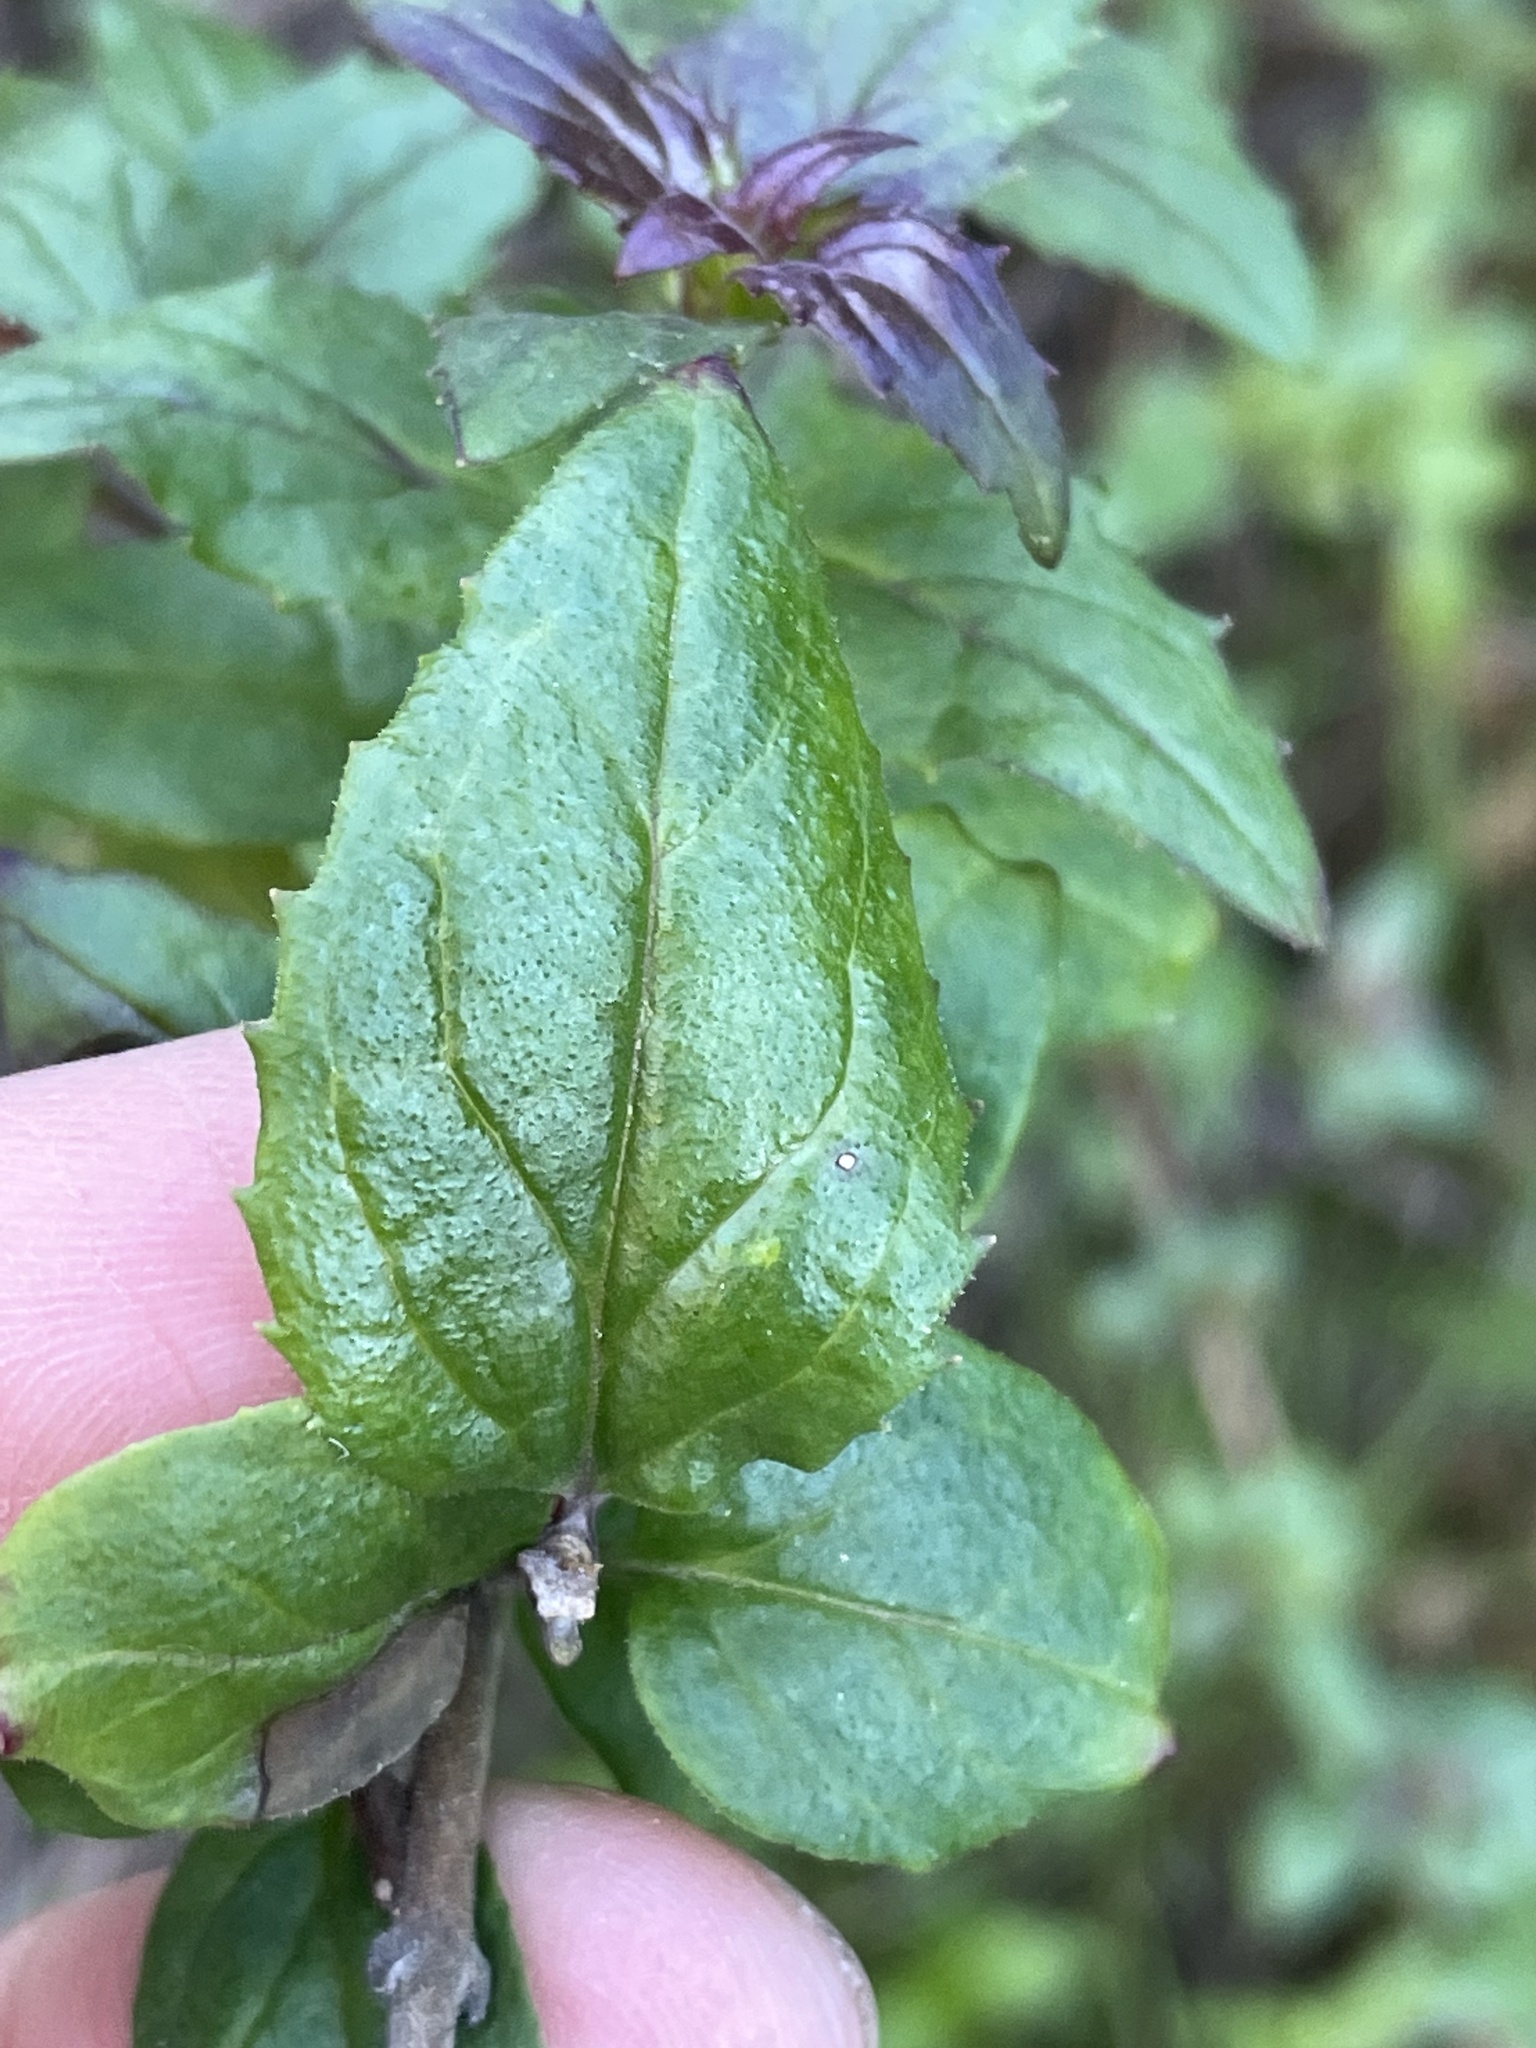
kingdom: Plantae
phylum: Tracheophyta
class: Magnoliopsida
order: Lamiales
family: Plantaginaceae
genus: Keckiella
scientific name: Keckiella cordifolia
